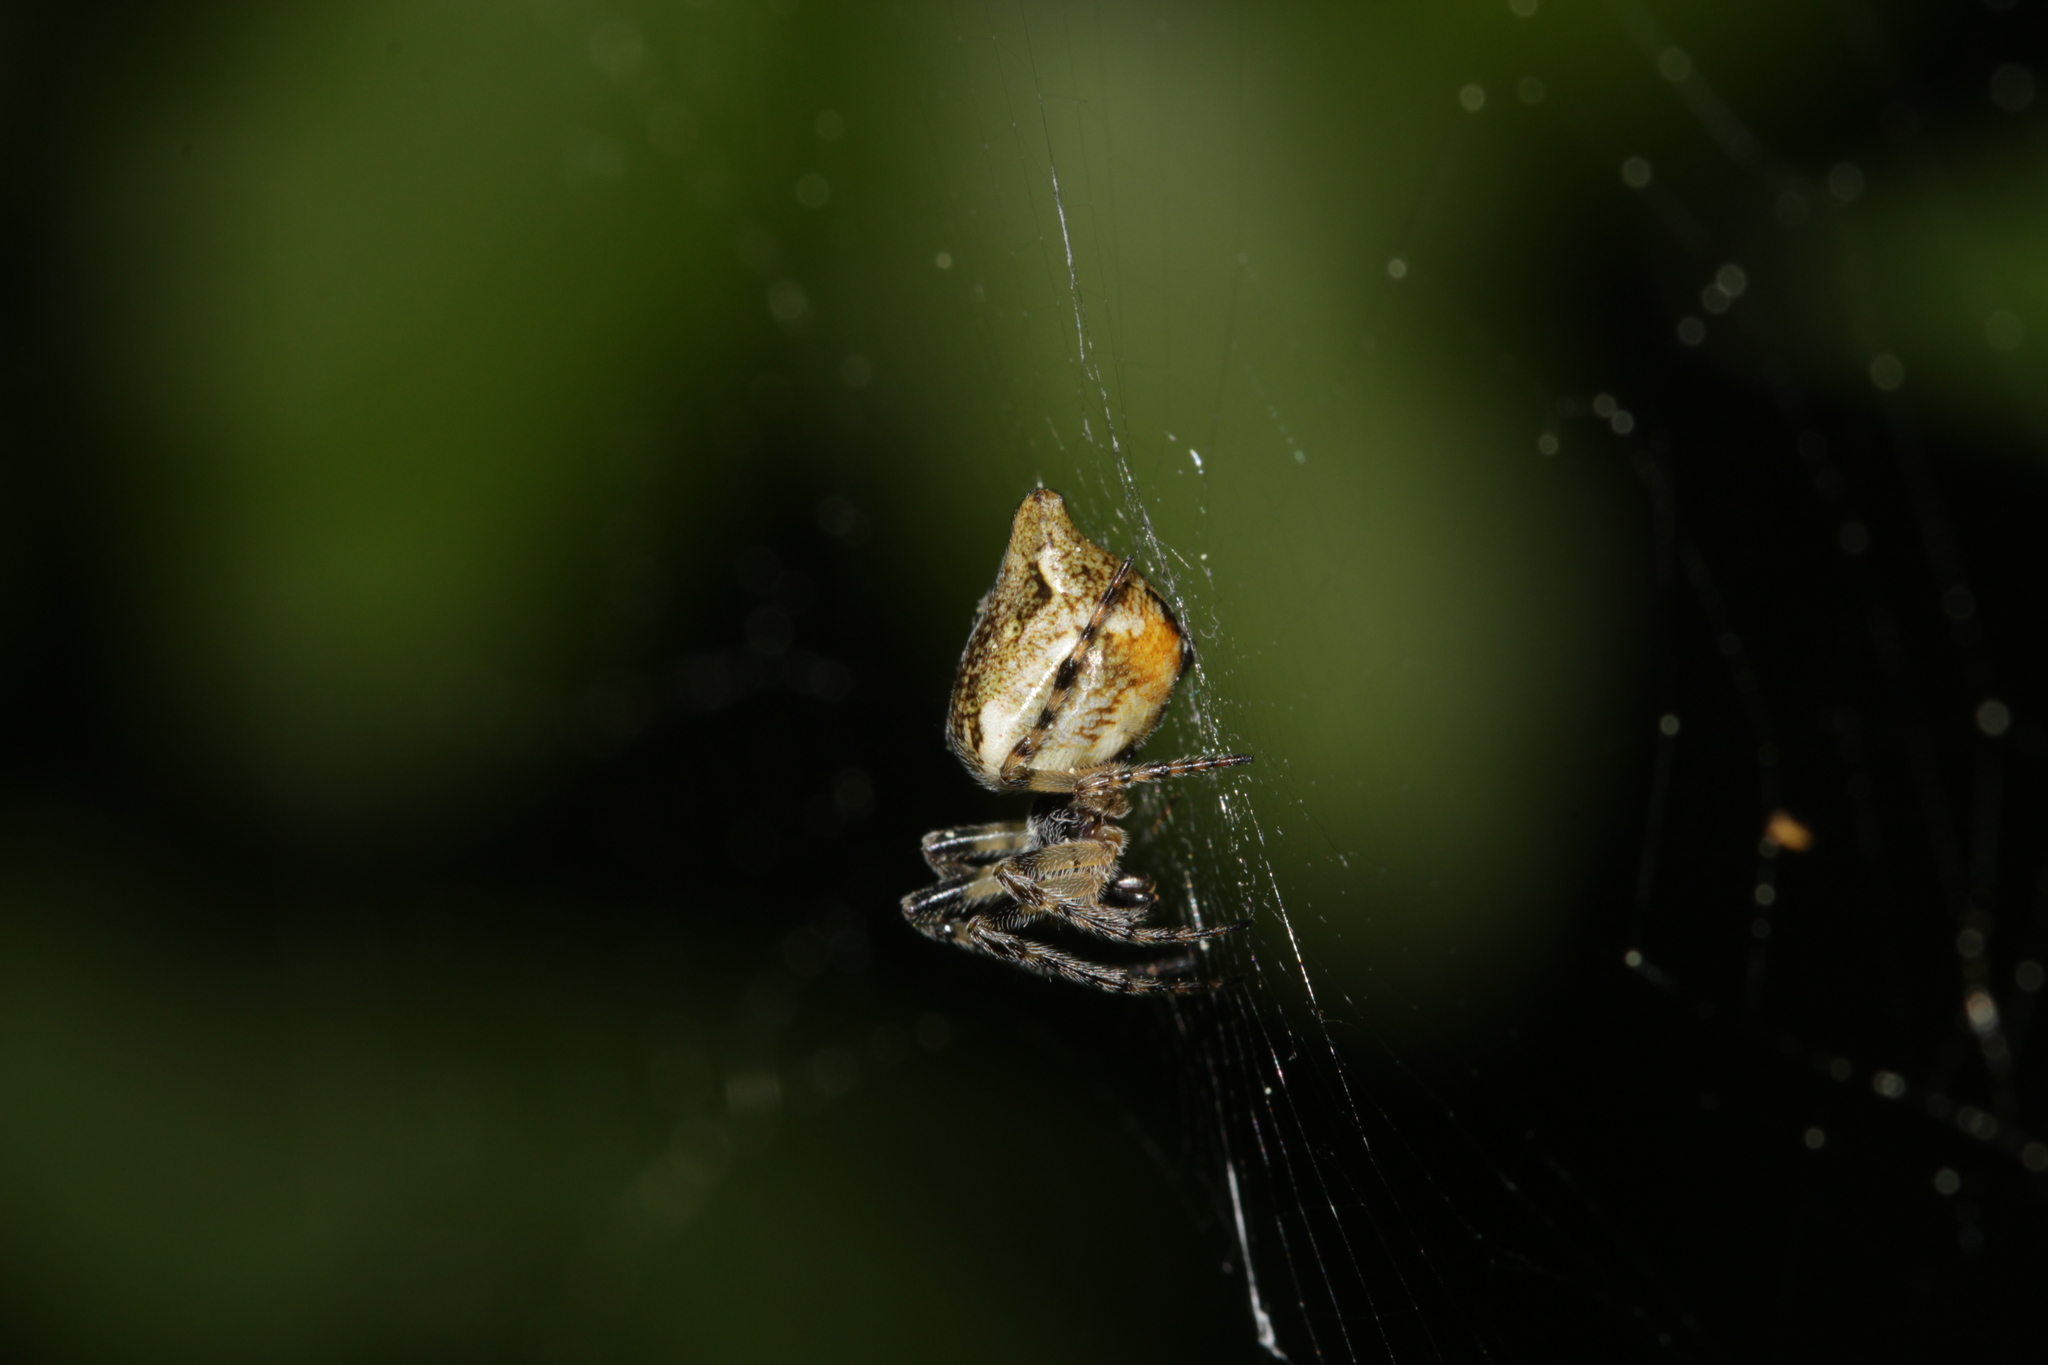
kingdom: Animalia
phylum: Arthropoda
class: Arachnida
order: Araneae
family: Araneidae
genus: Cyclosa
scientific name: Cyclosa conica
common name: Conical trashline orbweaver
